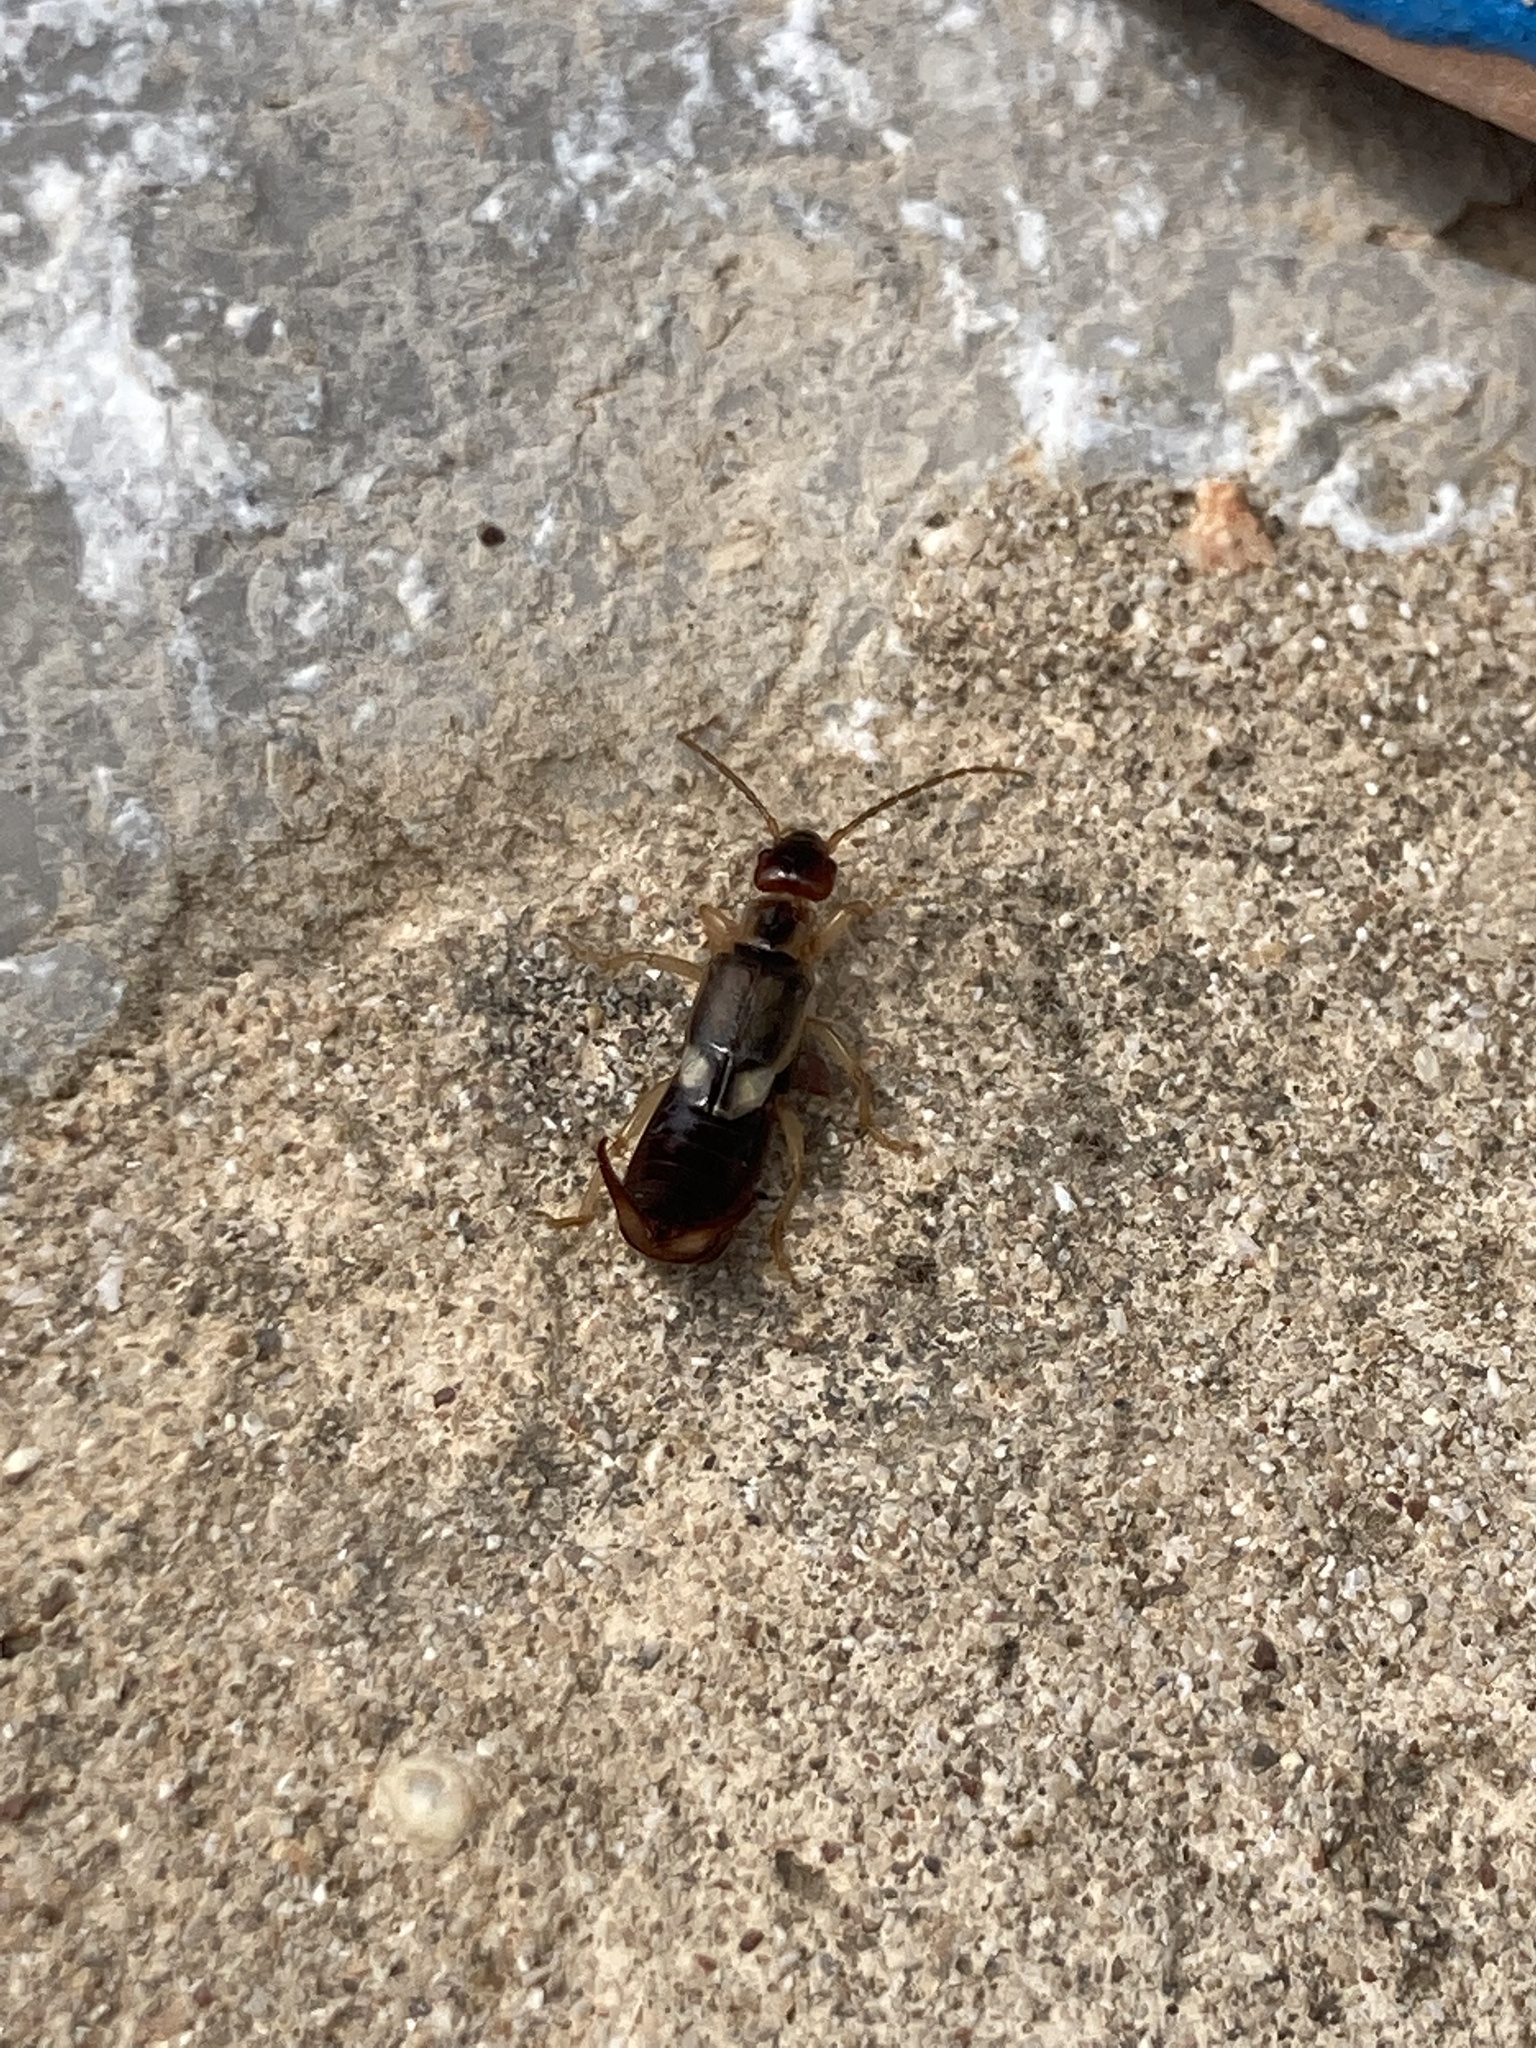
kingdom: Animalia
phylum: Arthropoda
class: Insecta
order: Dermaptera
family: Forficulidae
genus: Forficula
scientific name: Forficula lurida
